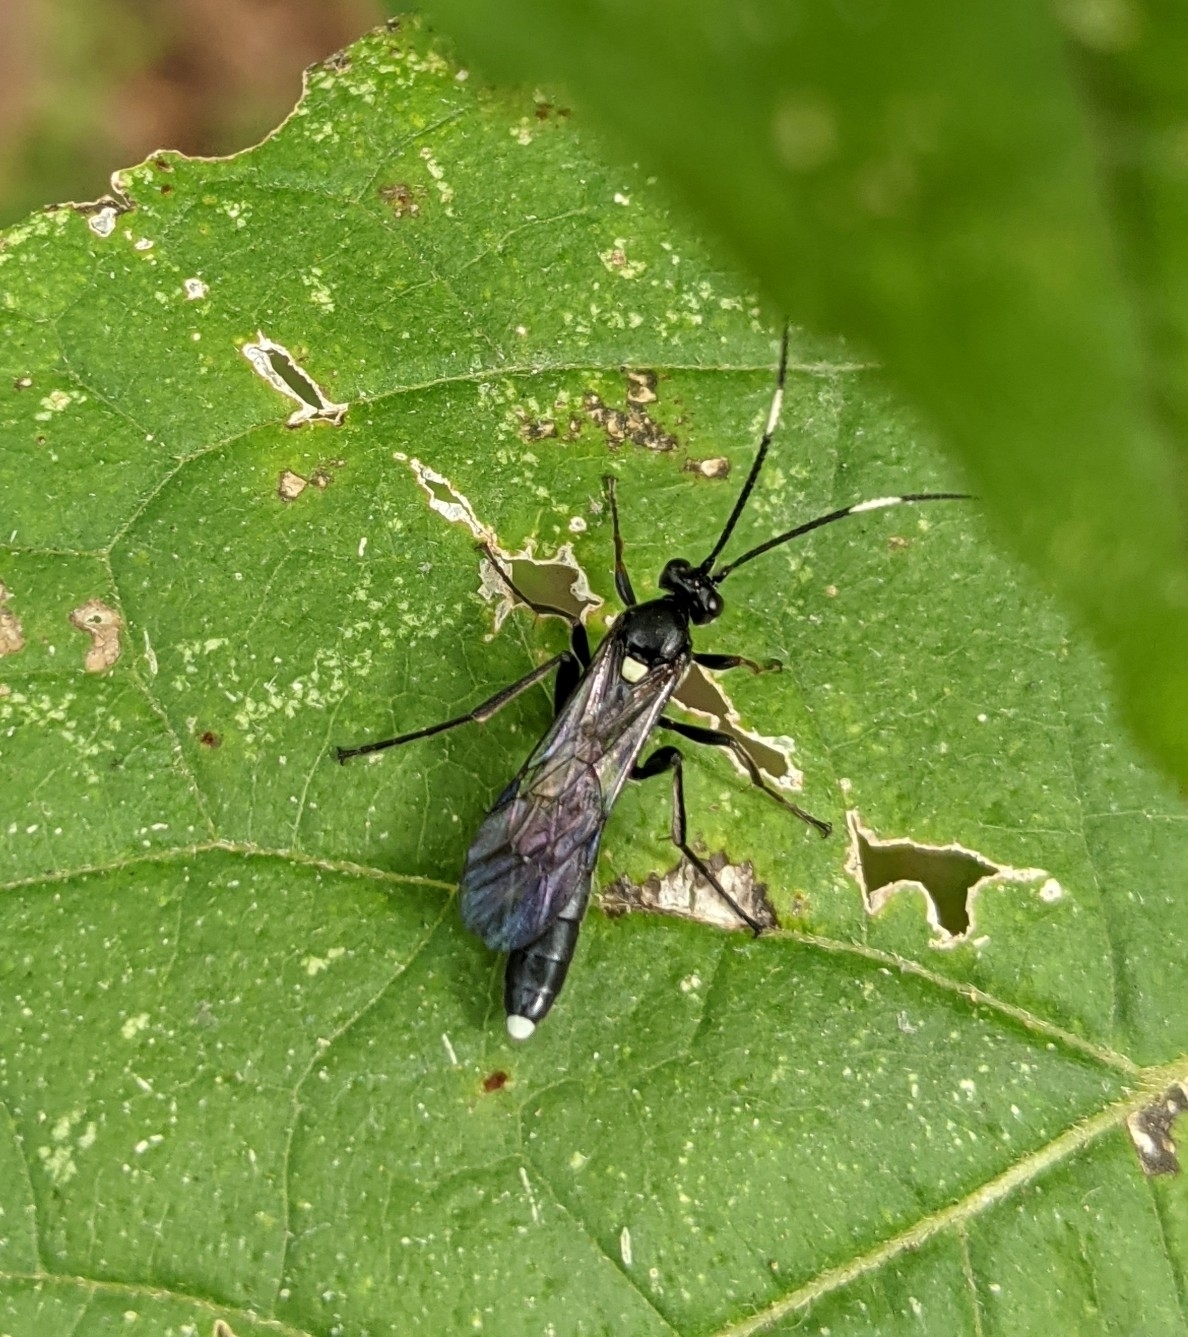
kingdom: Animalia
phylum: Arthropoda
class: Insecta
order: Hymenoptera
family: Ichneumonidae
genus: Vulgichneumon
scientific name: Vulgichneumon brevicinctor
